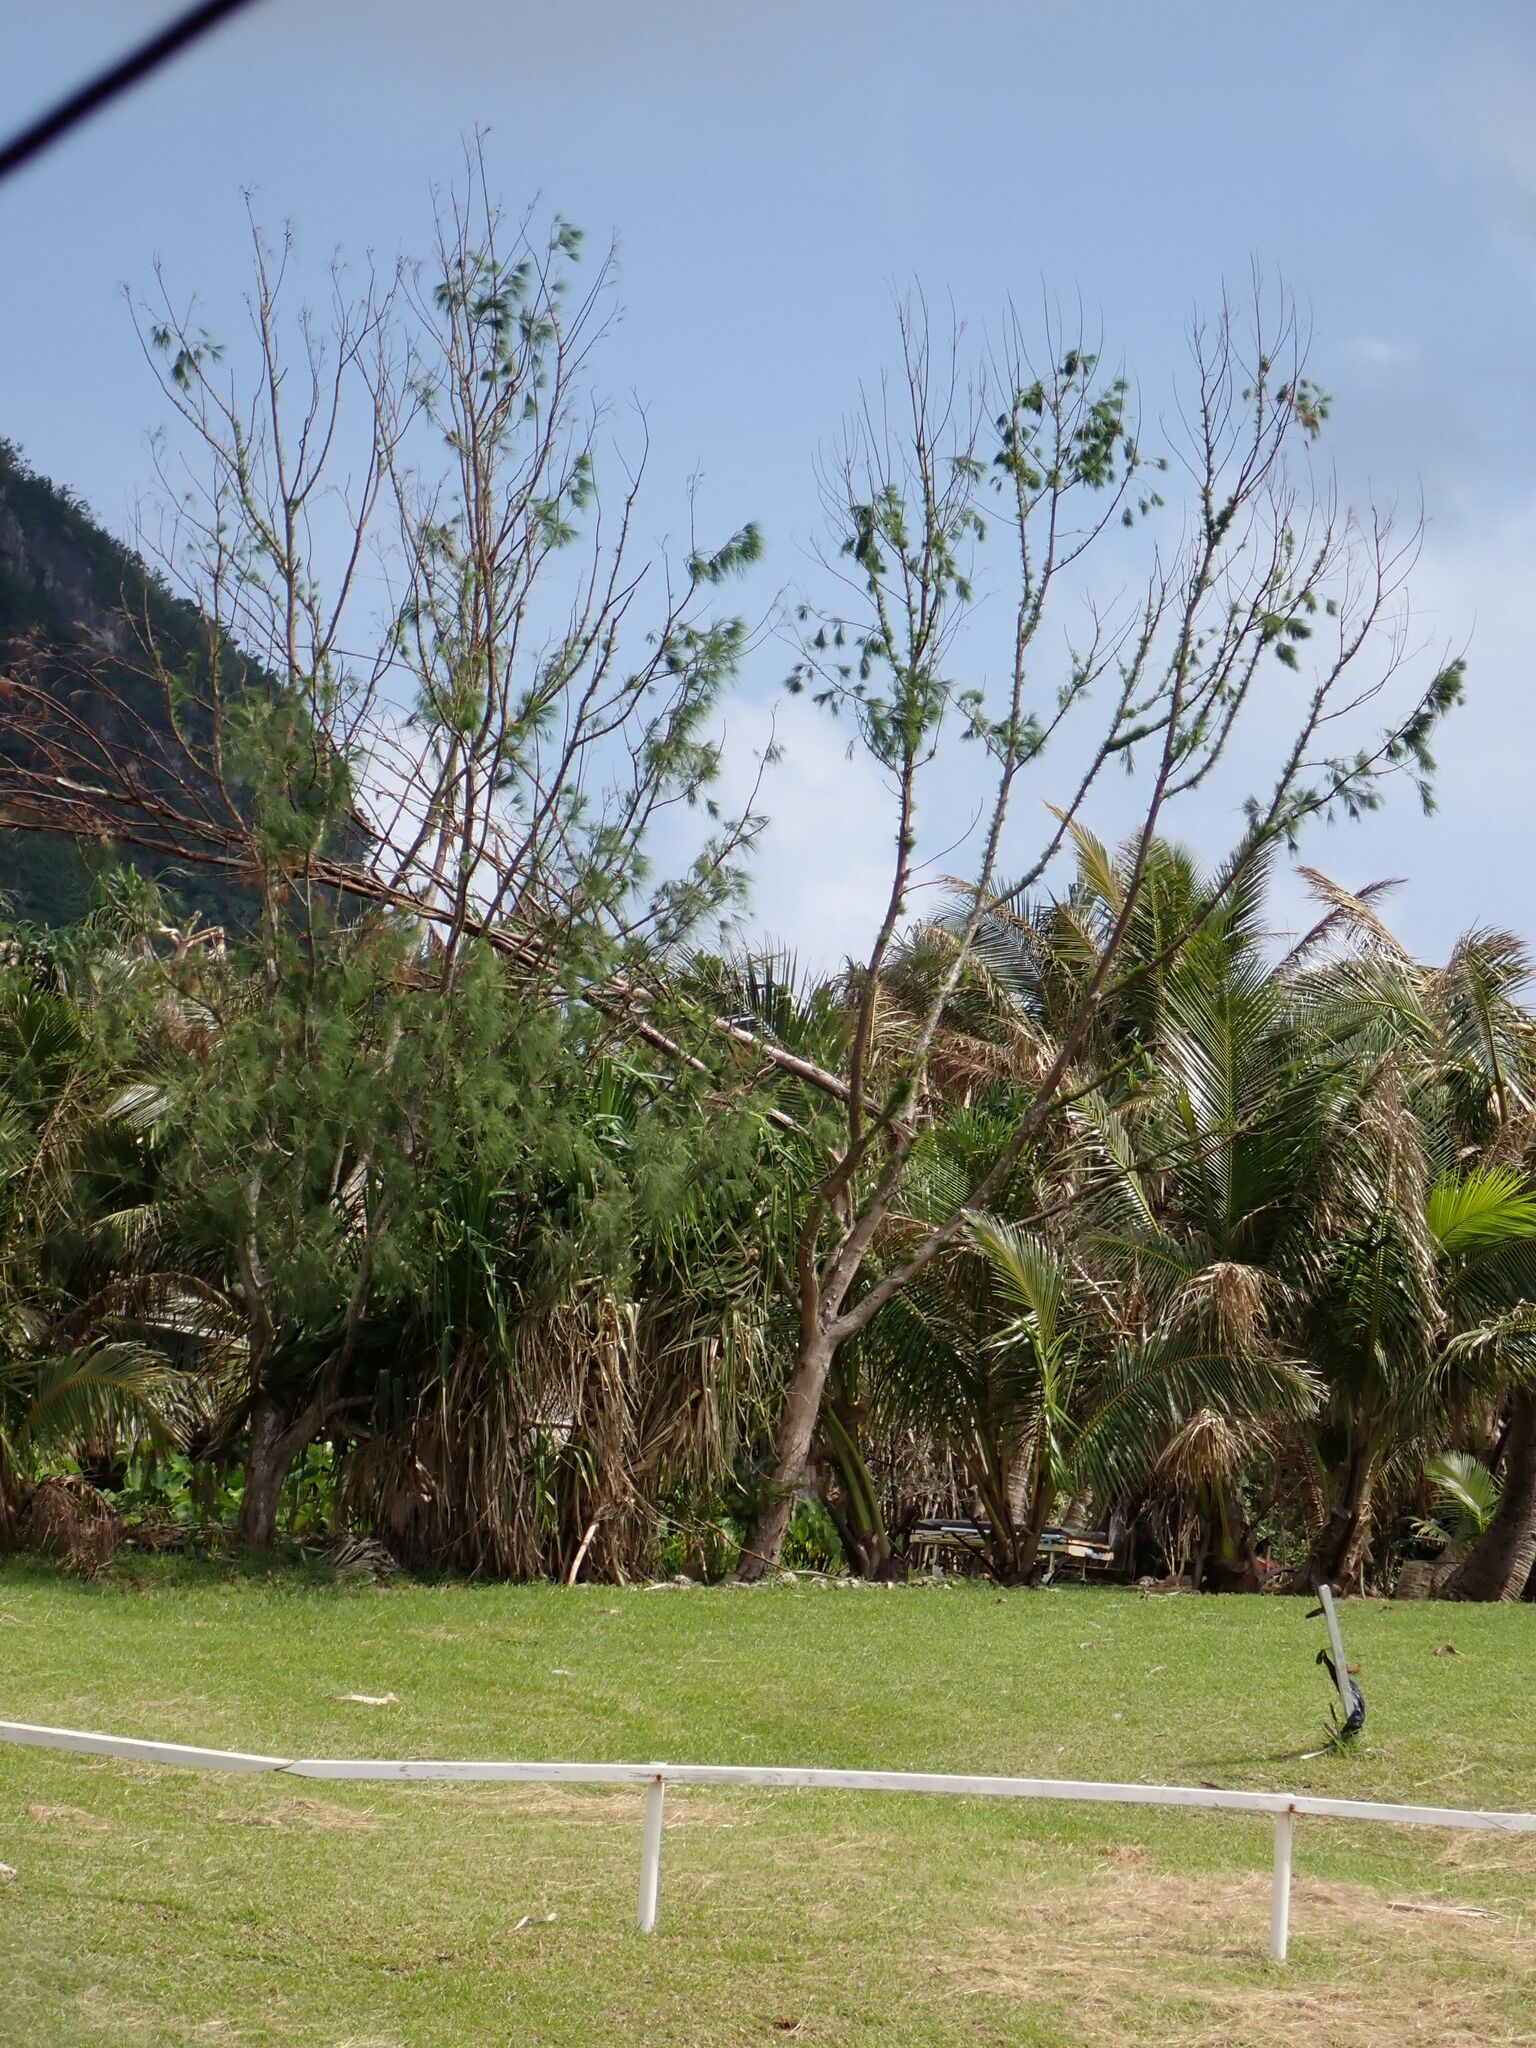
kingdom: Plantae
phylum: Tracheophyta
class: Magnoliopsida
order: Fagales
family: Casuarinaceae
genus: Casuarina
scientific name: Casuarina equisetifolia
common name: Beach sheoak
